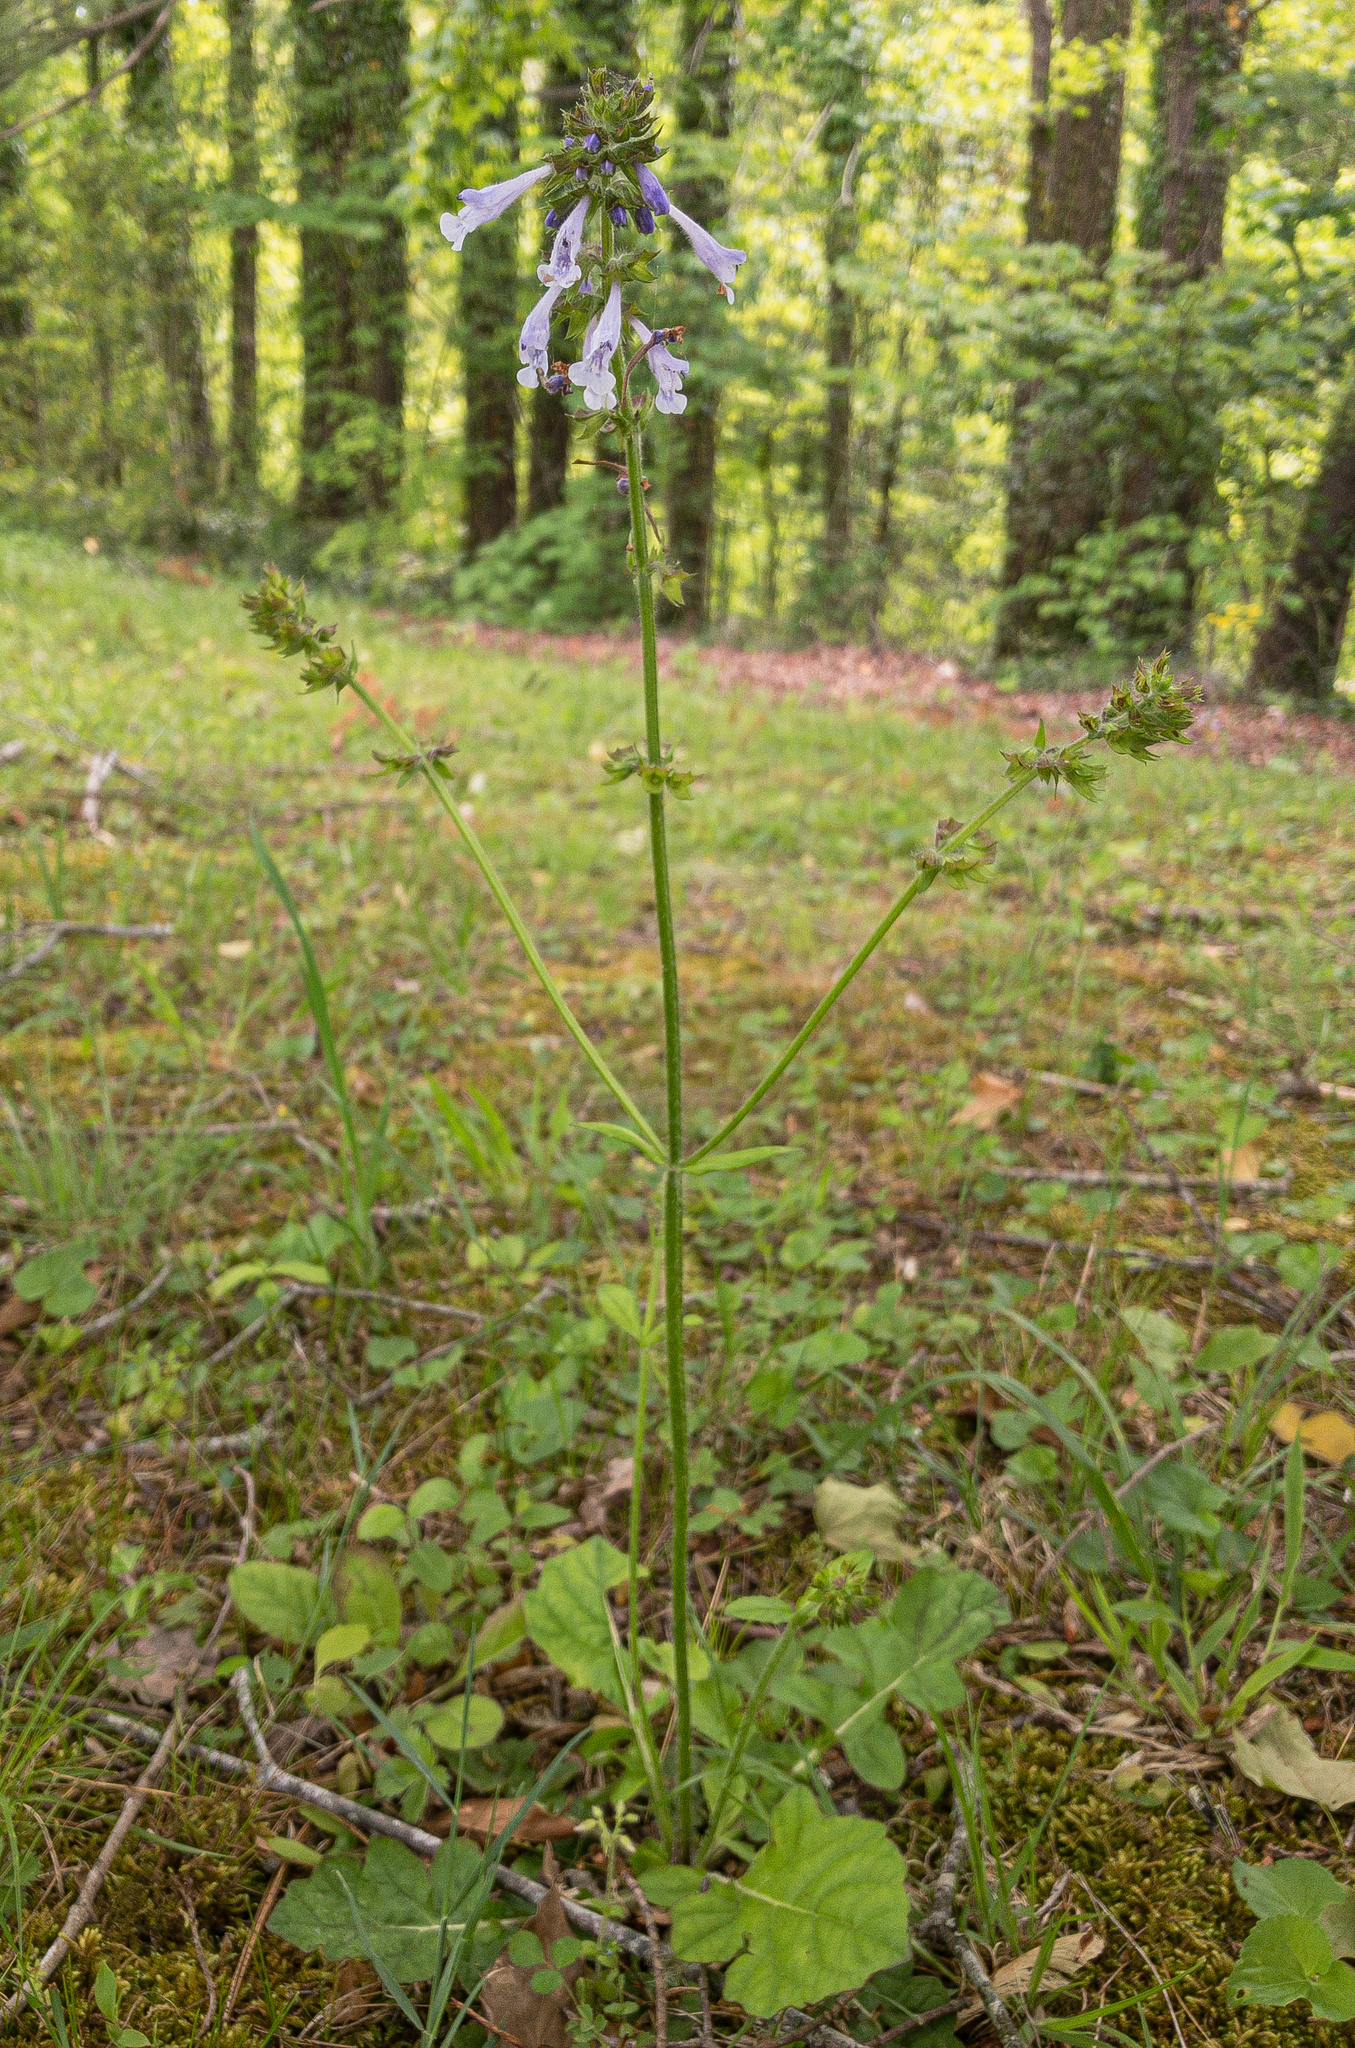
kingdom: Plantae
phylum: Tracheophyta
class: Magnoliopsida
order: Lamiales
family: Lamiaceae
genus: Salvia
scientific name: Salvia lyrata
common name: Cancerweed
